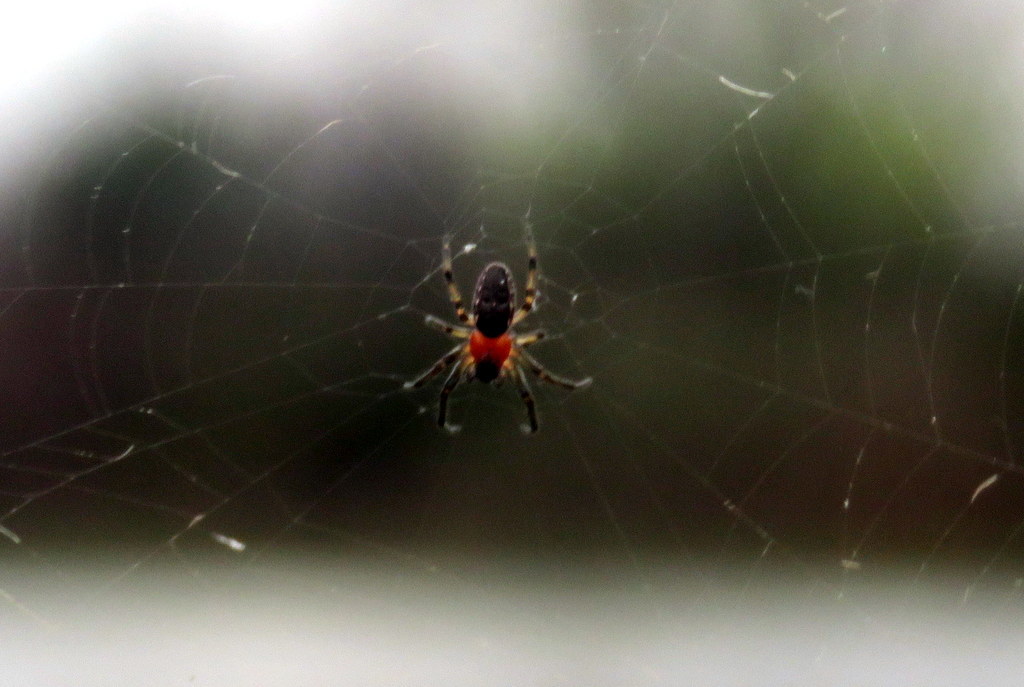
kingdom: Animalia
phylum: Arthropoda
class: Arachnida
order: Araneae
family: Araneidae
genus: Alpaida
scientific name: Alpaida veniliae
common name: Orb weavers
